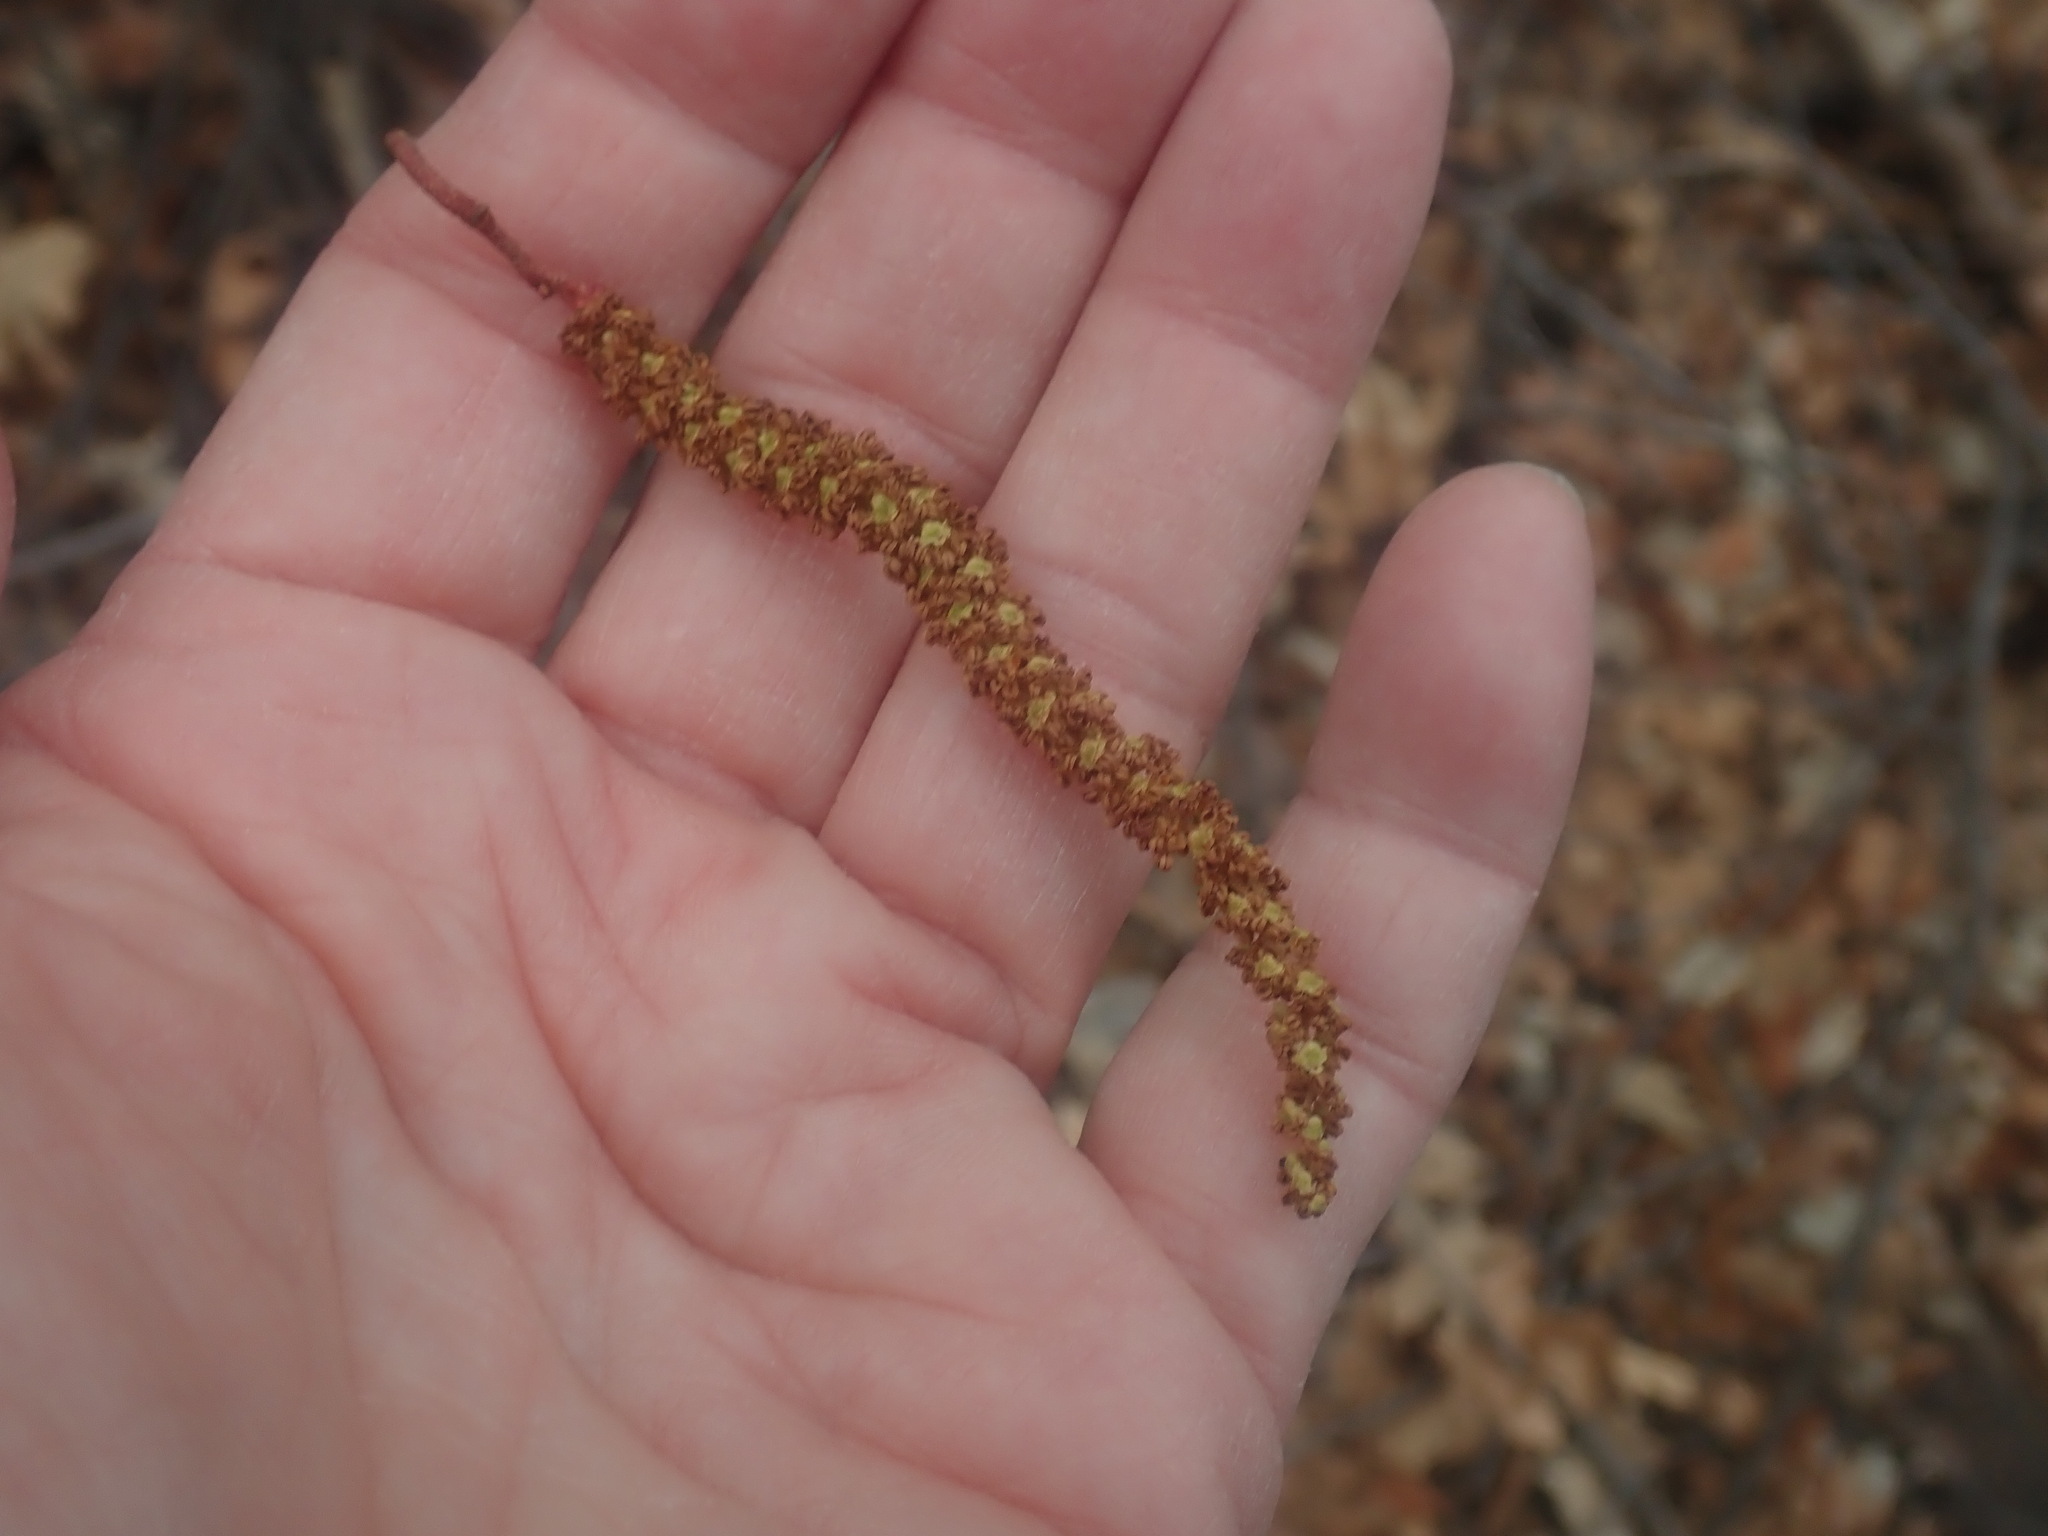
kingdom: Plantae
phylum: Tracheophyta
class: Magnoliopsida
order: Fagales
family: Fagaceae
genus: Quercus
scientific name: Quercus gambelii
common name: Gambel oak
